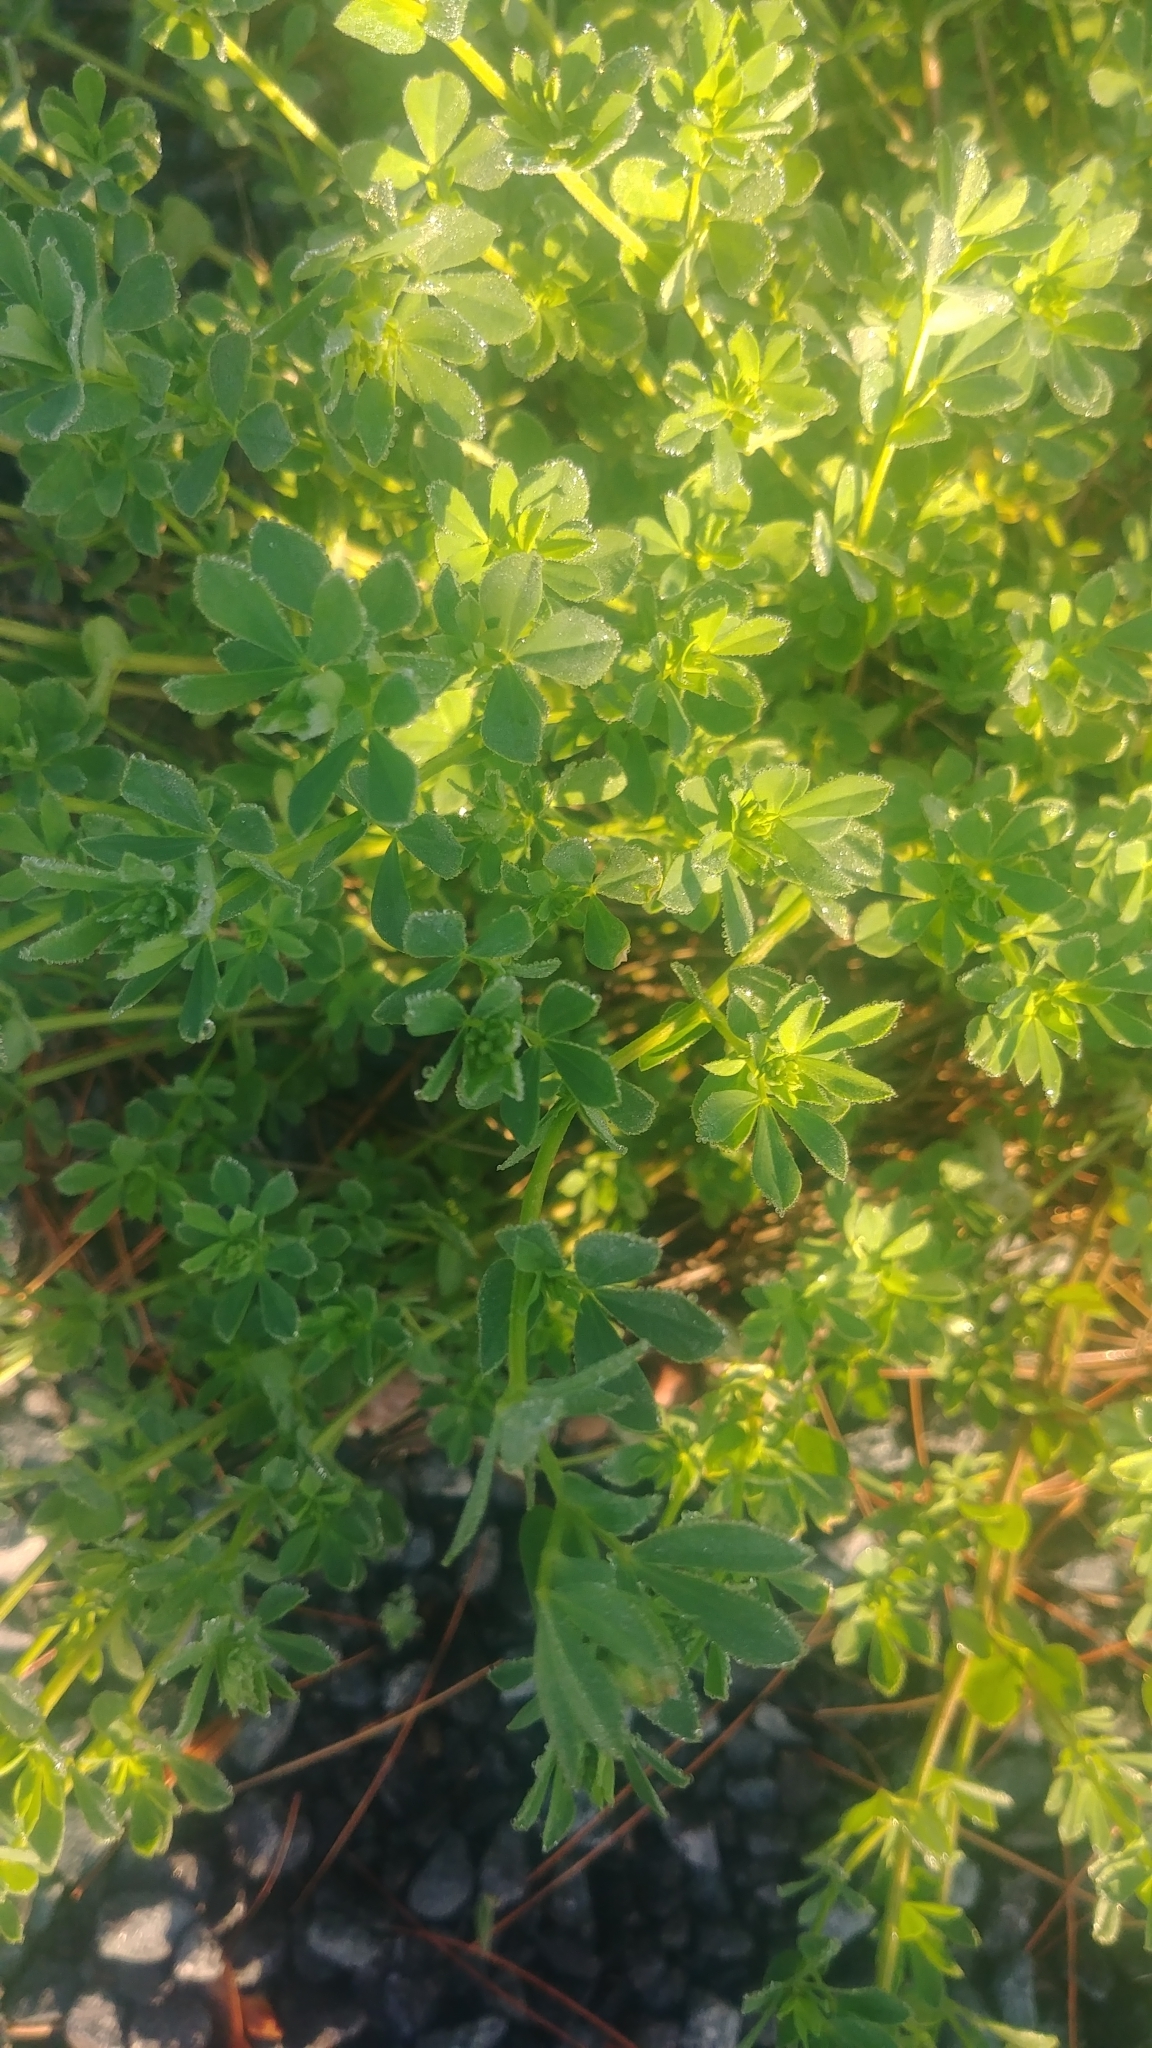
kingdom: Plantae
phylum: Tracheophyta
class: Magnoliopsida
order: Fabales
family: Fabaceae
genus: Lotus
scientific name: Lotus corniculatus
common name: Common bird's-foot-trefoil
